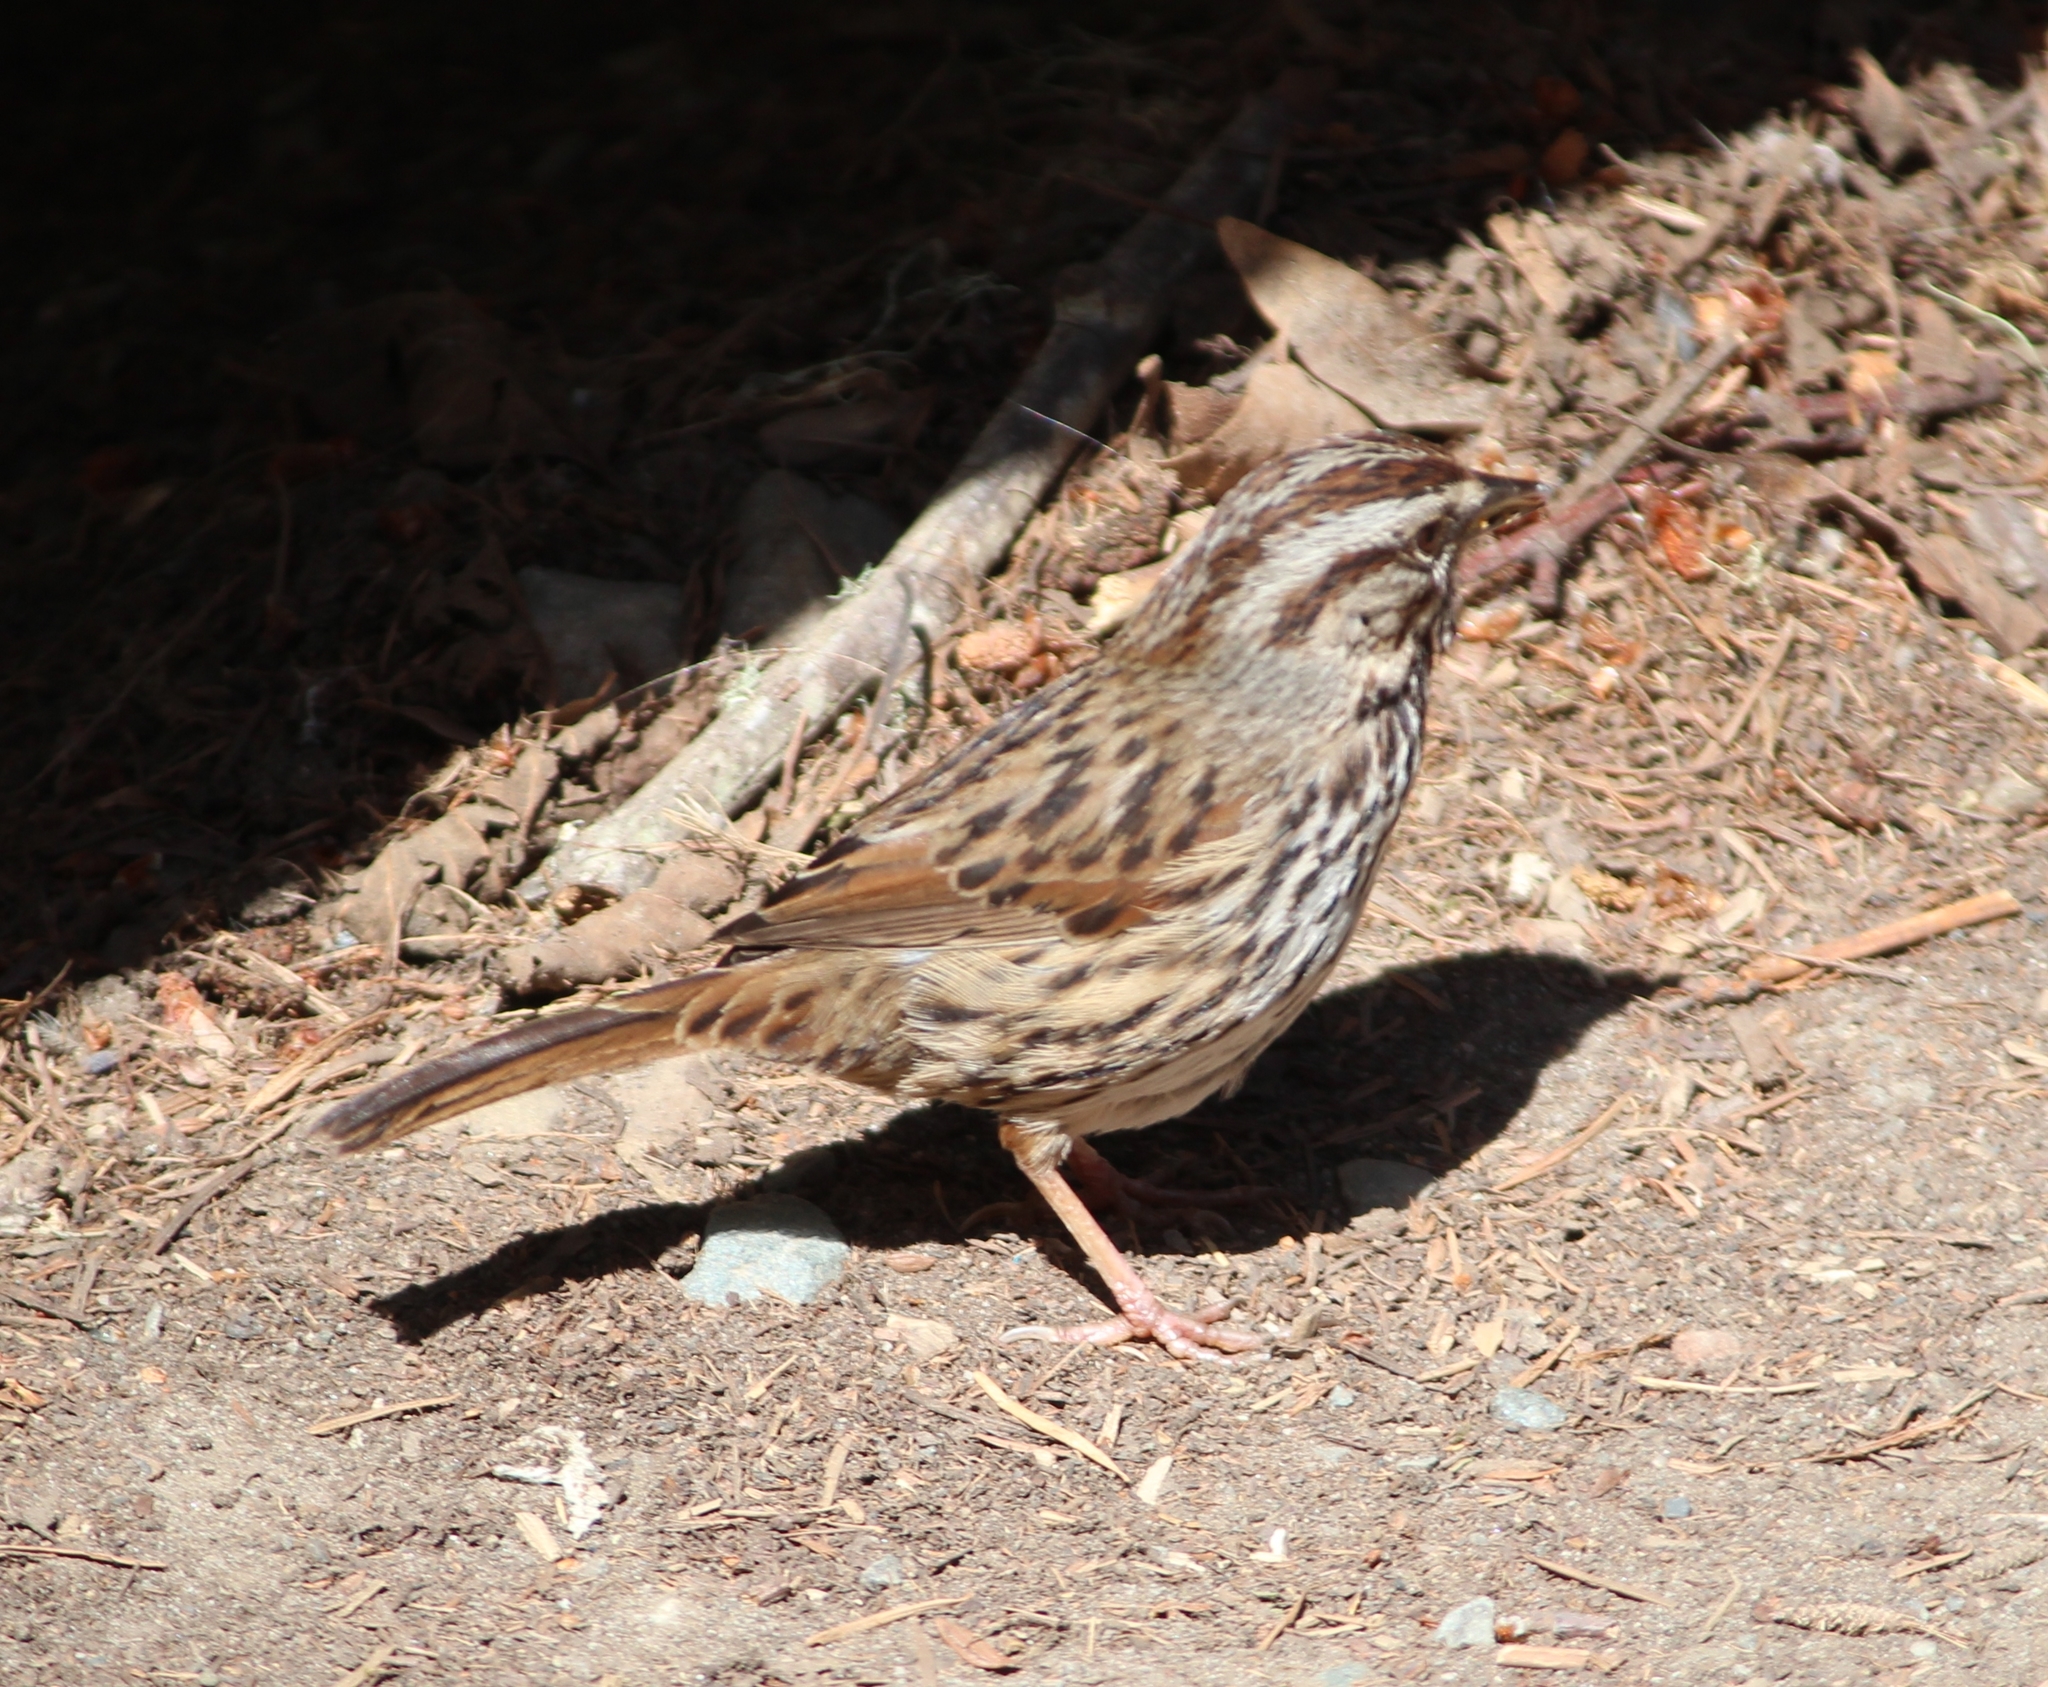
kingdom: Animalia
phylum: Chordata
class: Aves
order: Passeriformes
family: Passerellidae
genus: Melospiza
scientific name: Melospiza melodia
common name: Song sparrow
